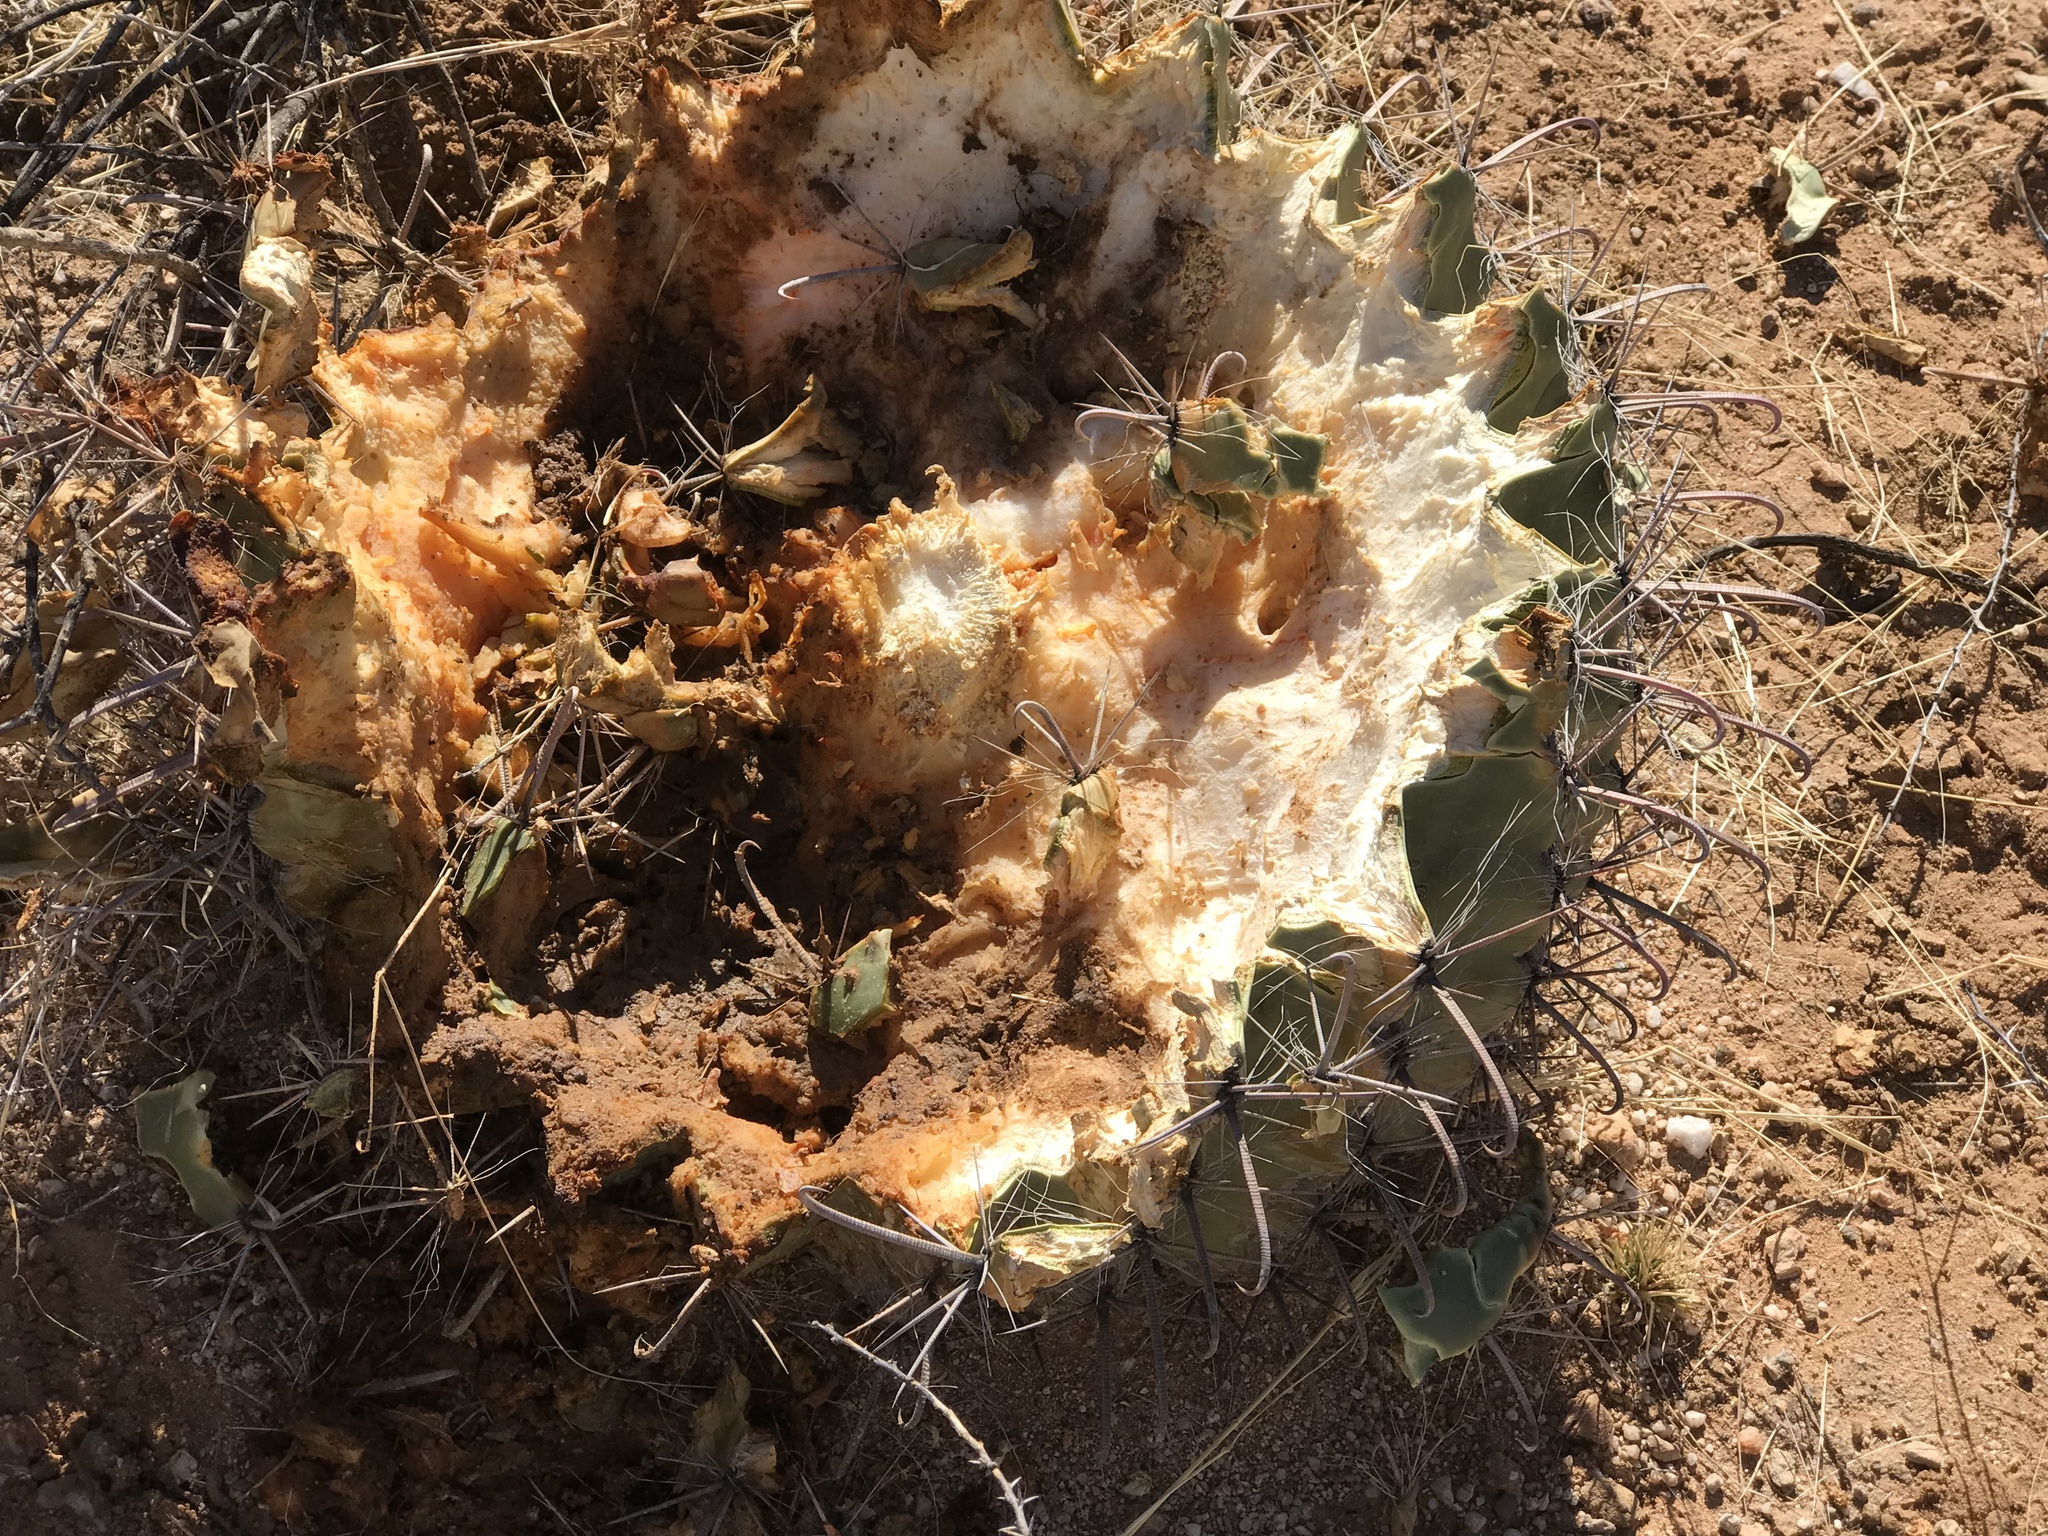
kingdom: Plantae
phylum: Tracheophyta
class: Magnoliopsida
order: Caryophyllales
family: Cactaceae
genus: Ferocactus
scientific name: Ferocactus wislizeni
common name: Candy barrel cactus
